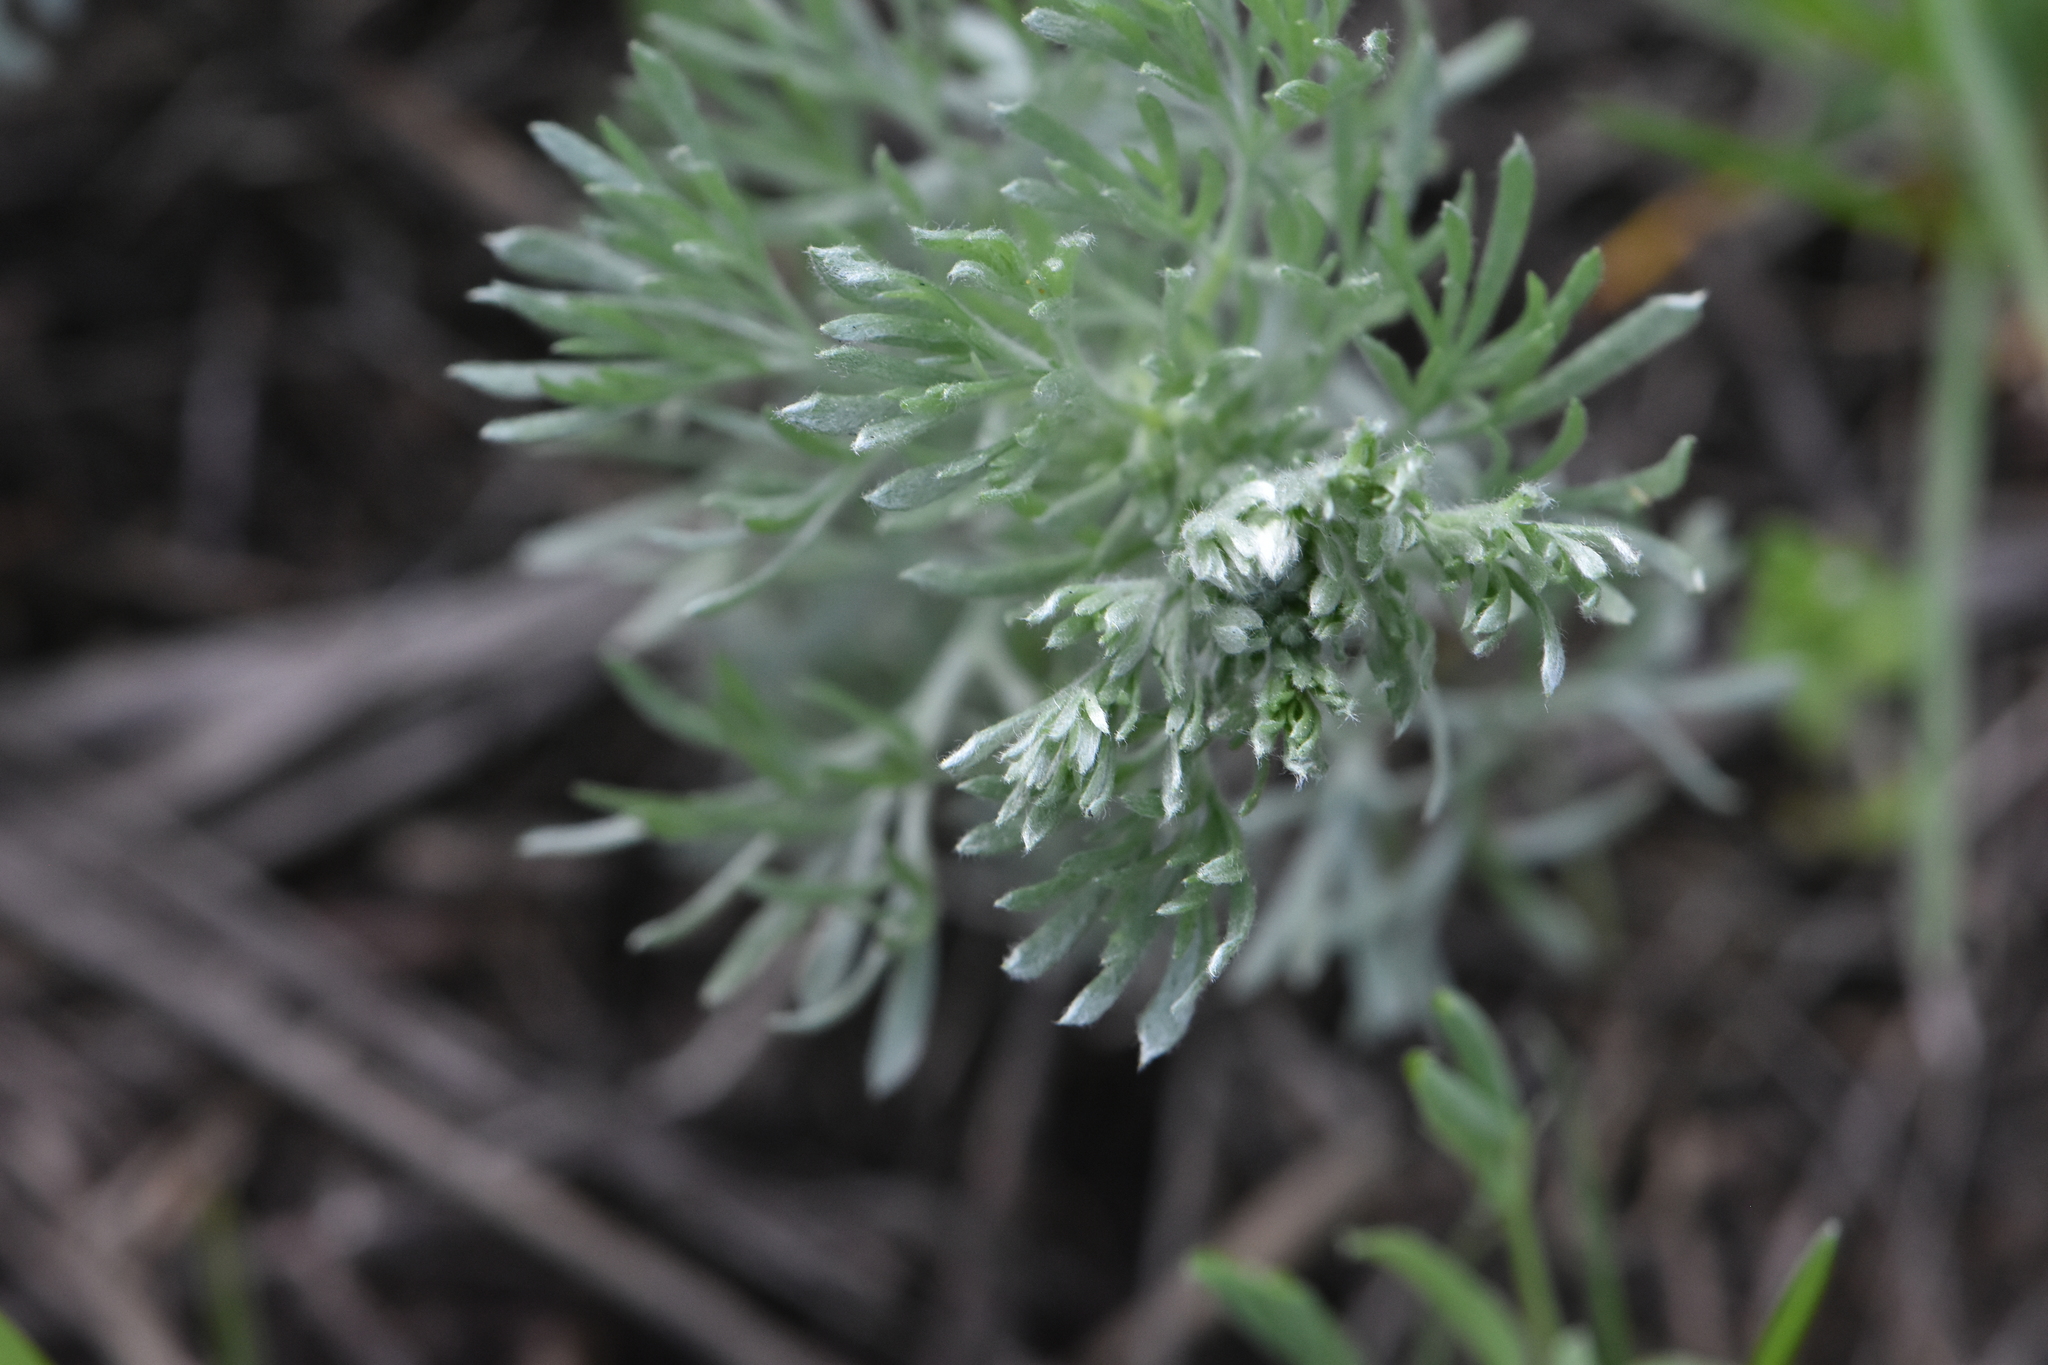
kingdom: Plantae
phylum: Tracheophyta
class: Magnoliopsida
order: Asterales
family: Asteraceae
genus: Artemisia
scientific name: Artemisia austriaca
